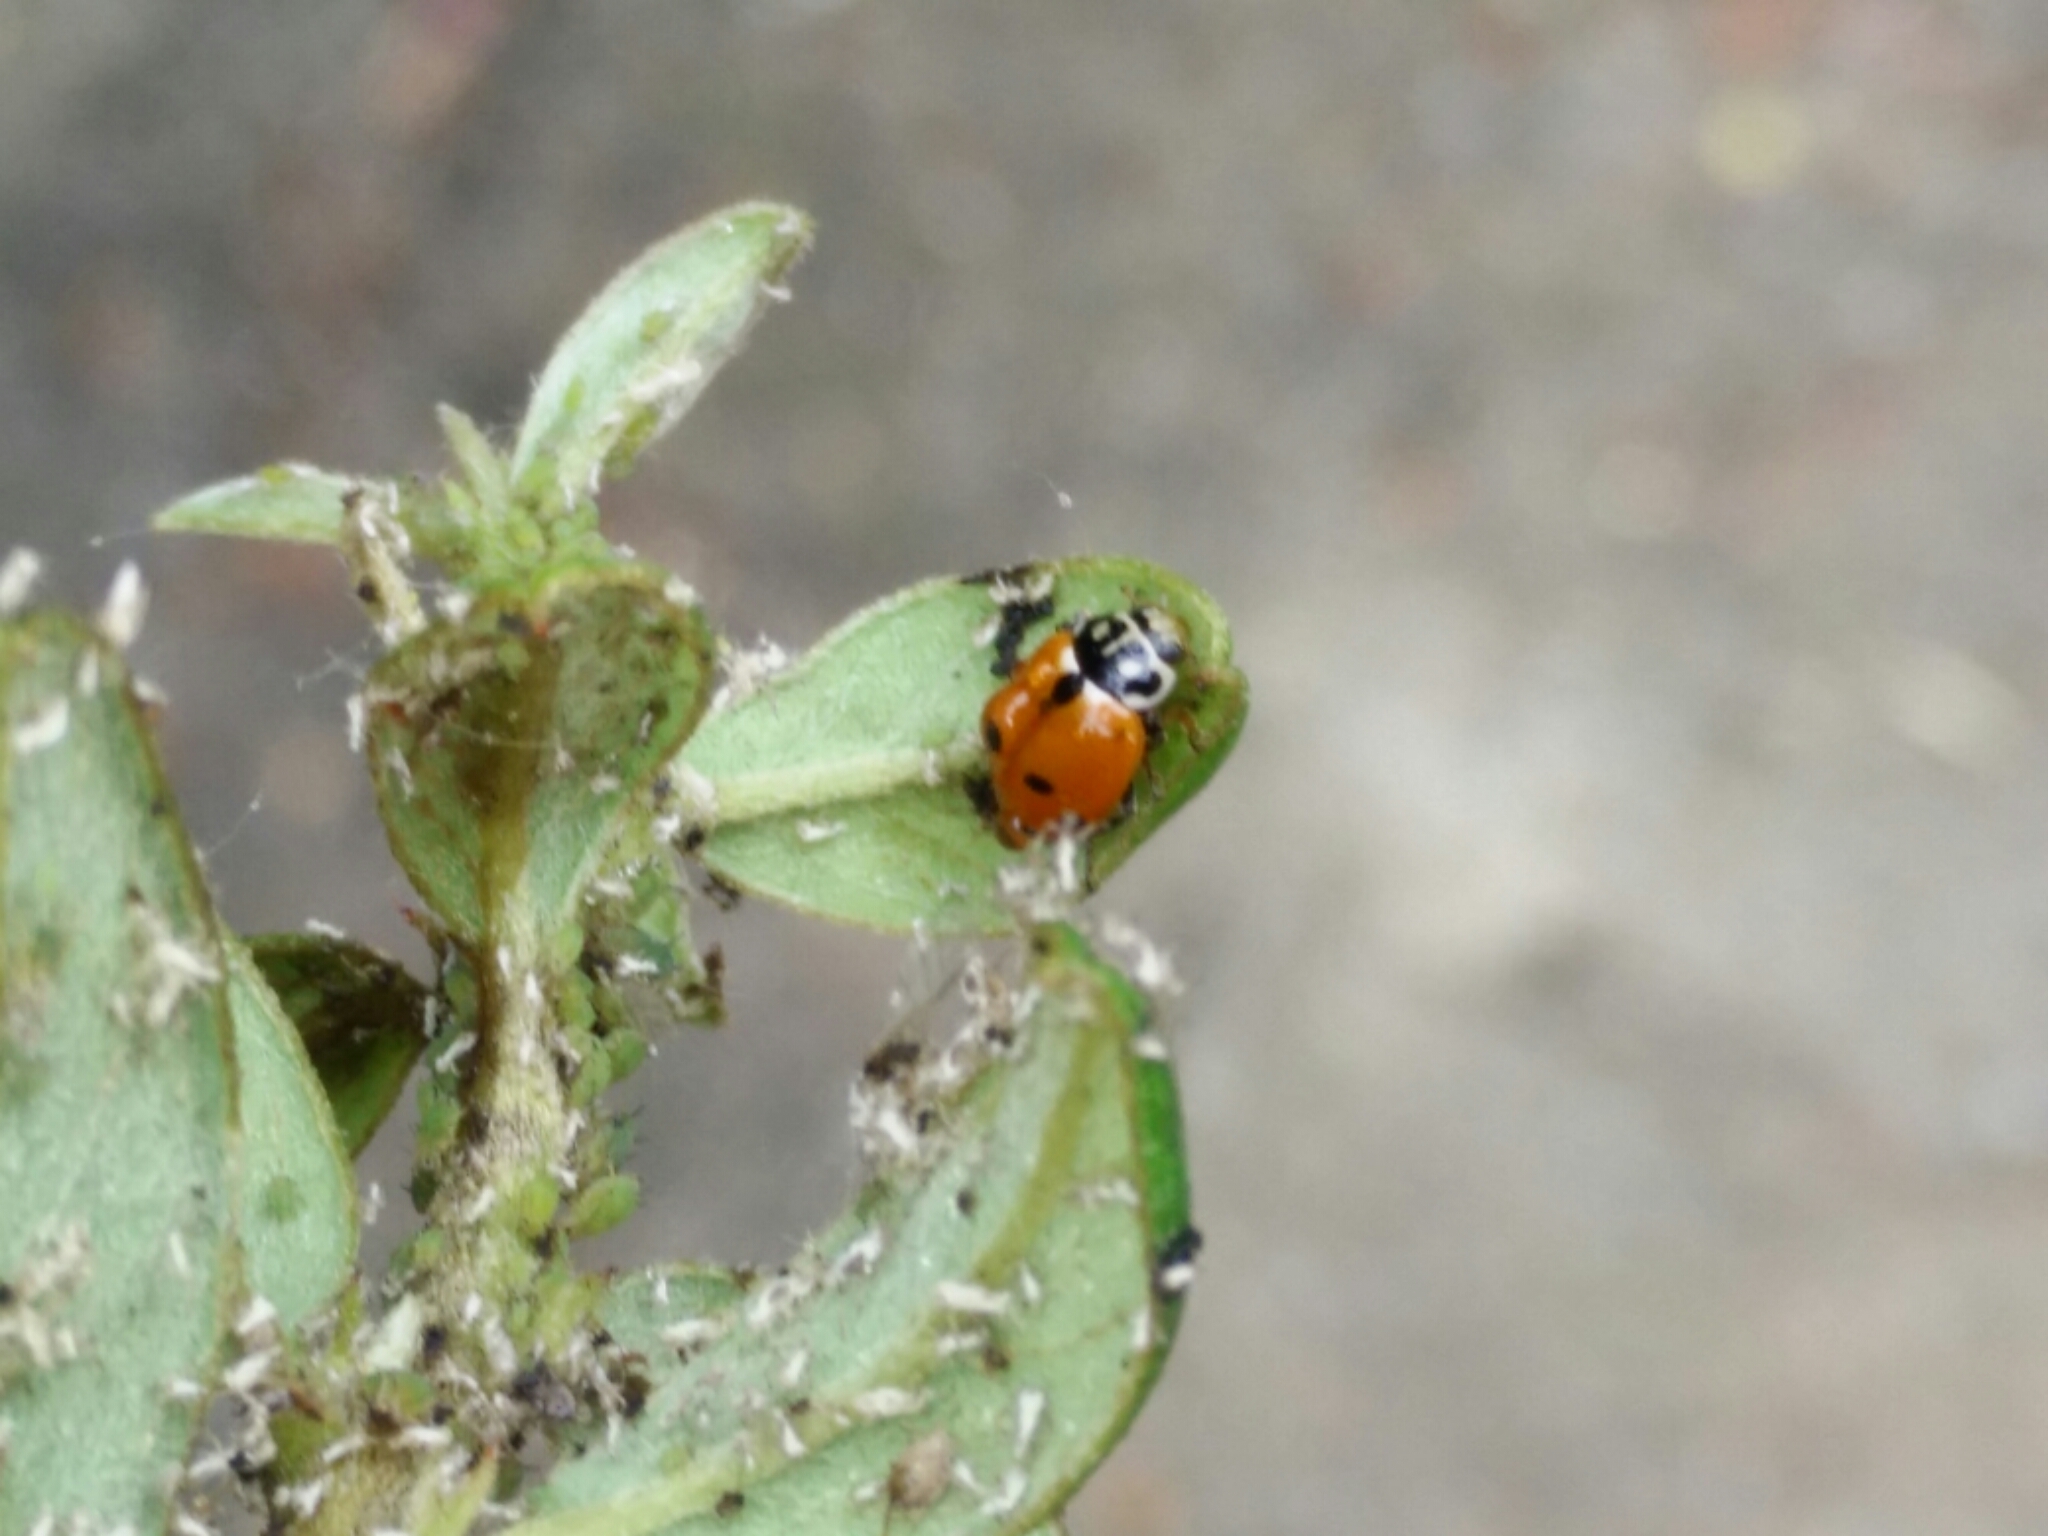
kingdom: Animalia
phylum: Arthropoda
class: Insecta
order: Coleoptera
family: Coccinellidae
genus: Hippodamia
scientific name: Hippodamia variegata
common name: Ladybird beetle
